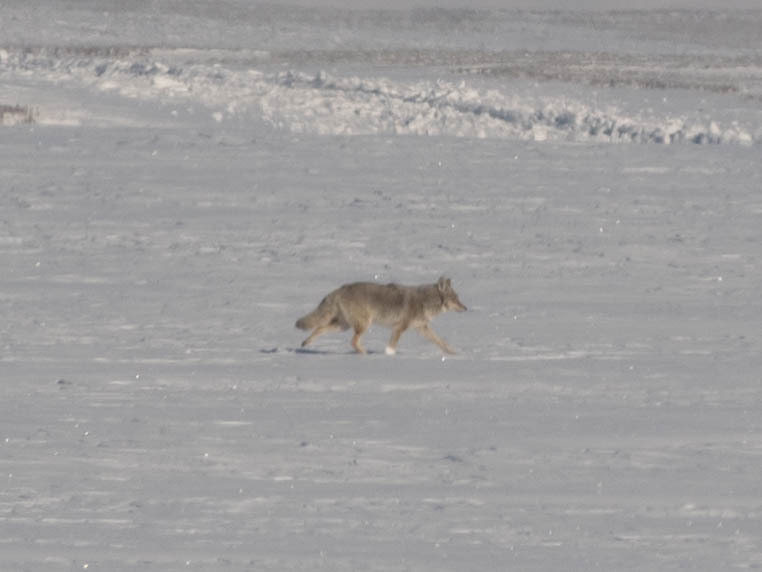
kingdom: Animalia
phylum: Chordata
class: Mammalia
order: Carnivora
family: Canidae
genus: Canis
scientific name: Canis latrans
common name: Coyote
